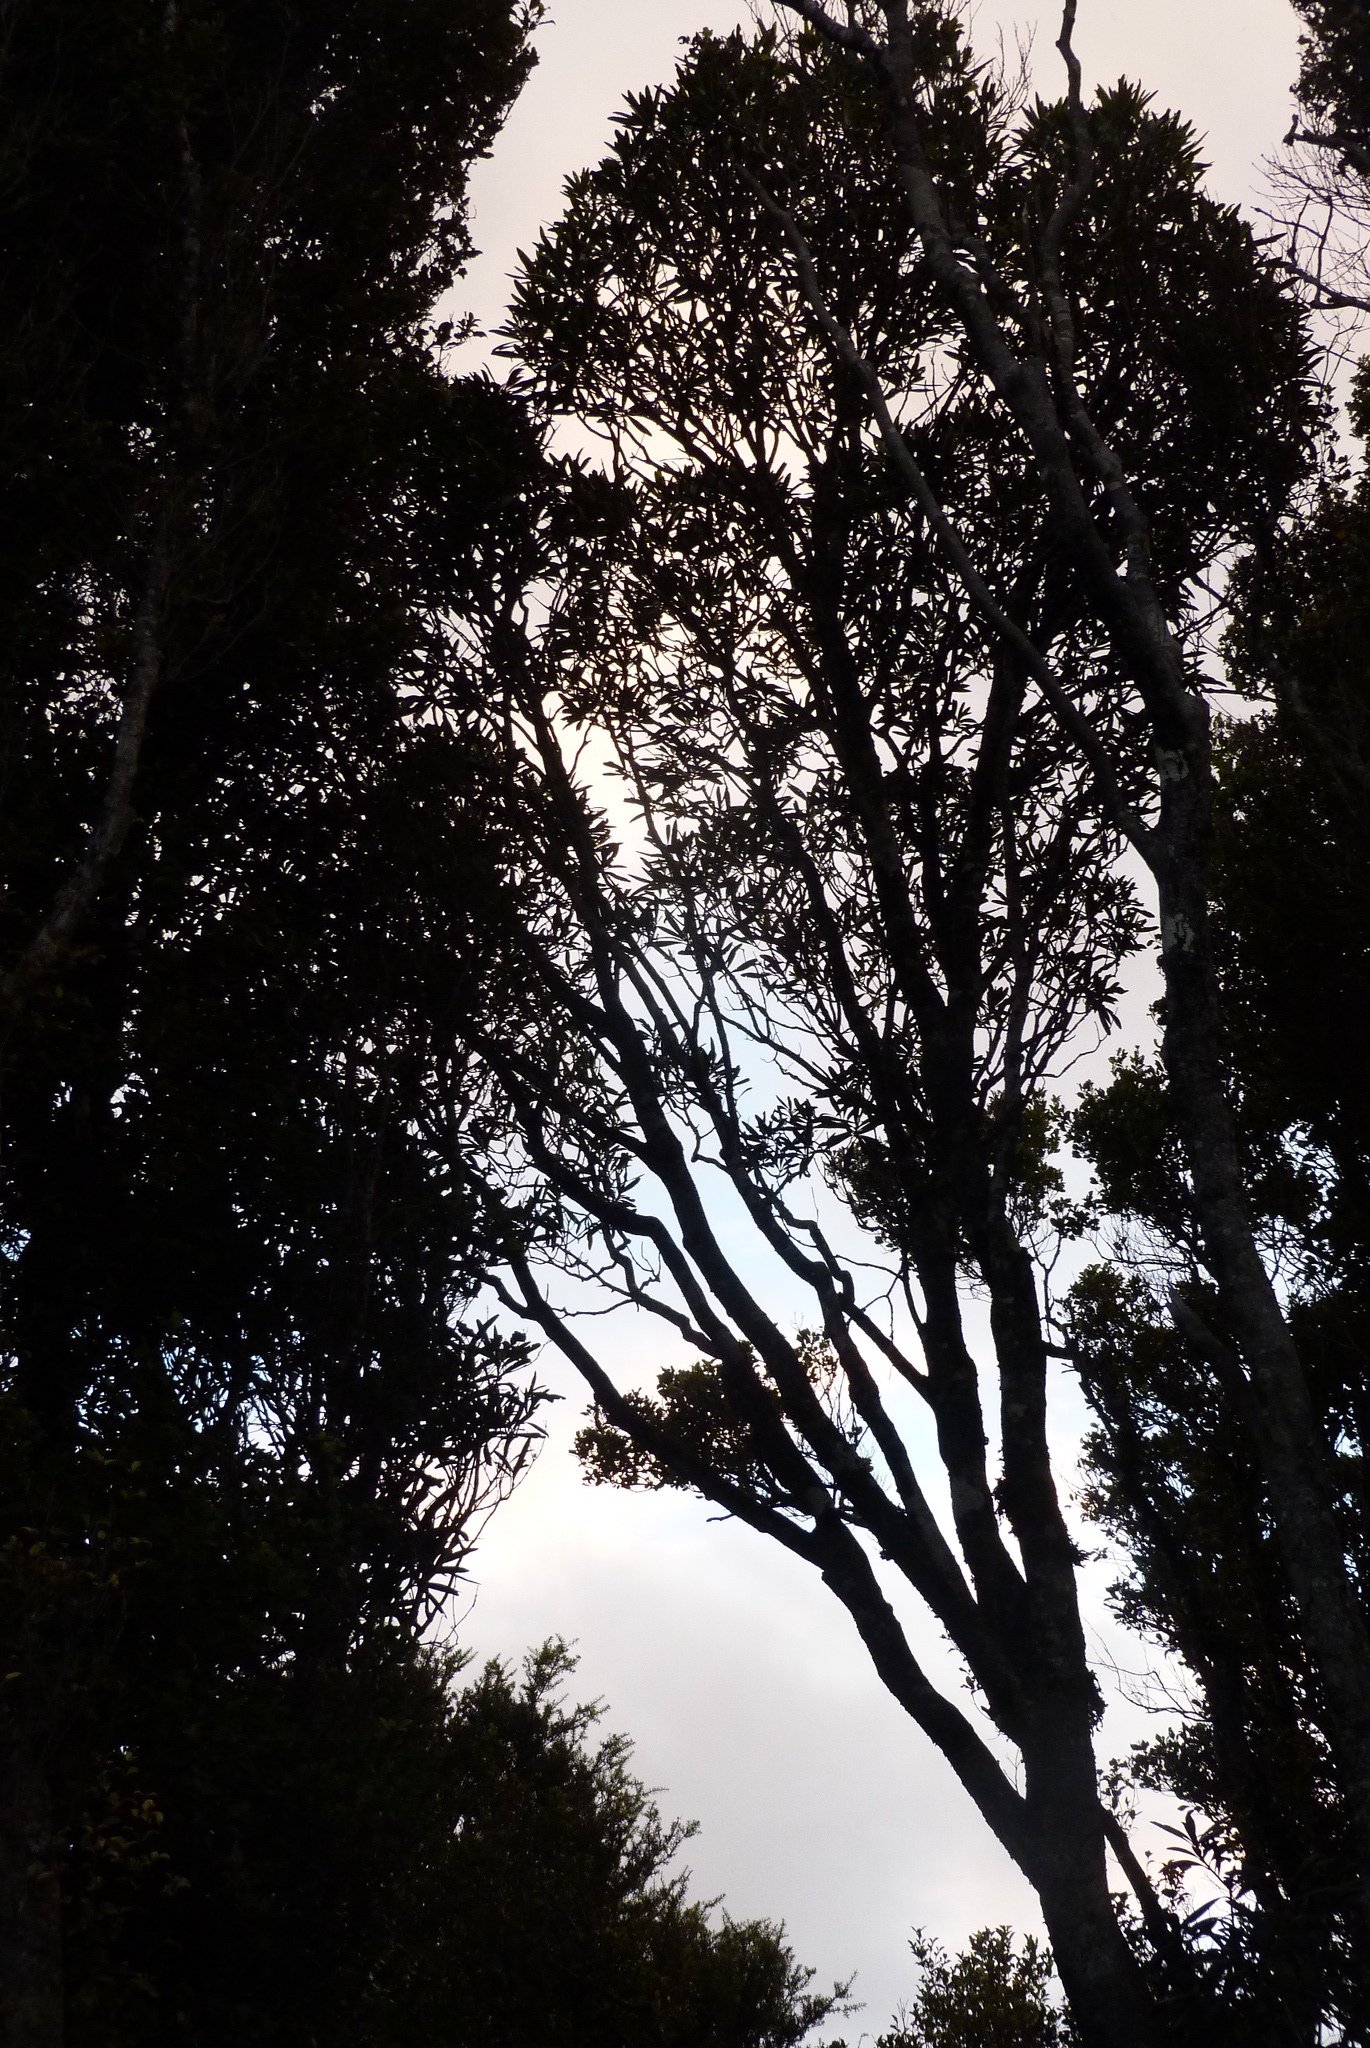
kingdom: Plantae
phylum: Tracheophyta
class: Magnoliopsida
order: Apiales
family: Araliaceae
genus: Pseudopanax
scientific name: Pseudopanax crassifolius
